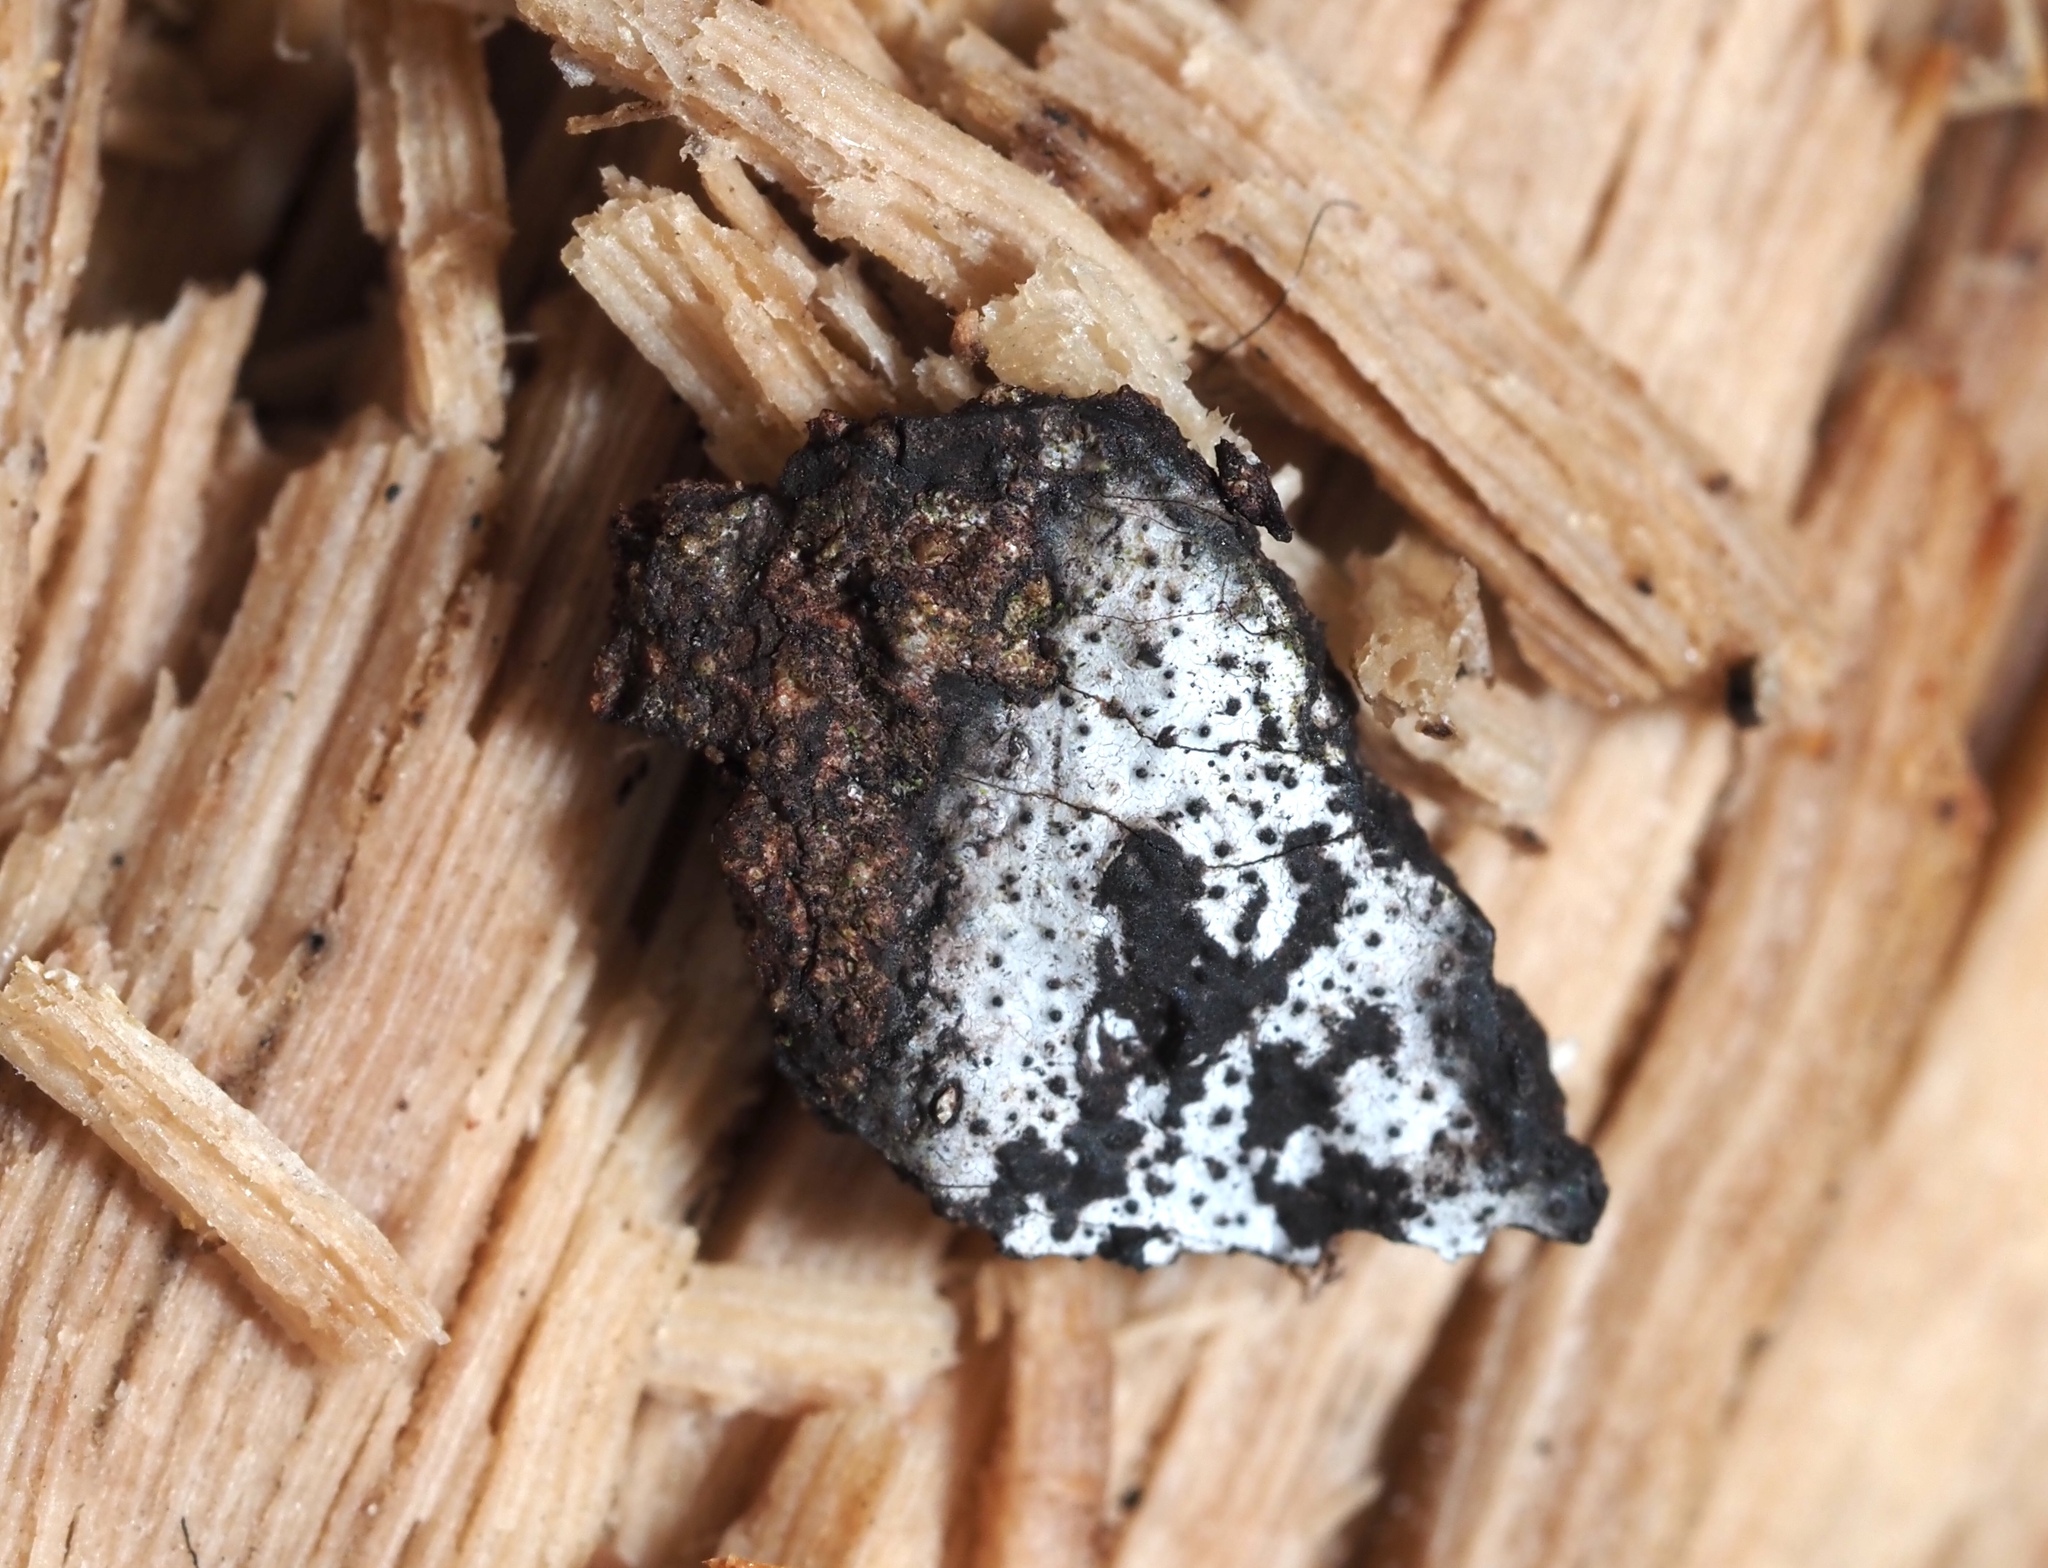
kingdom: Fungi
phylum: Ascomycota
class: Sordariomycetes
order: Xylariales
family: Graphostromataceae
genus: Biscogniauxia
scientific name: Biscogniauxia atropunctata
